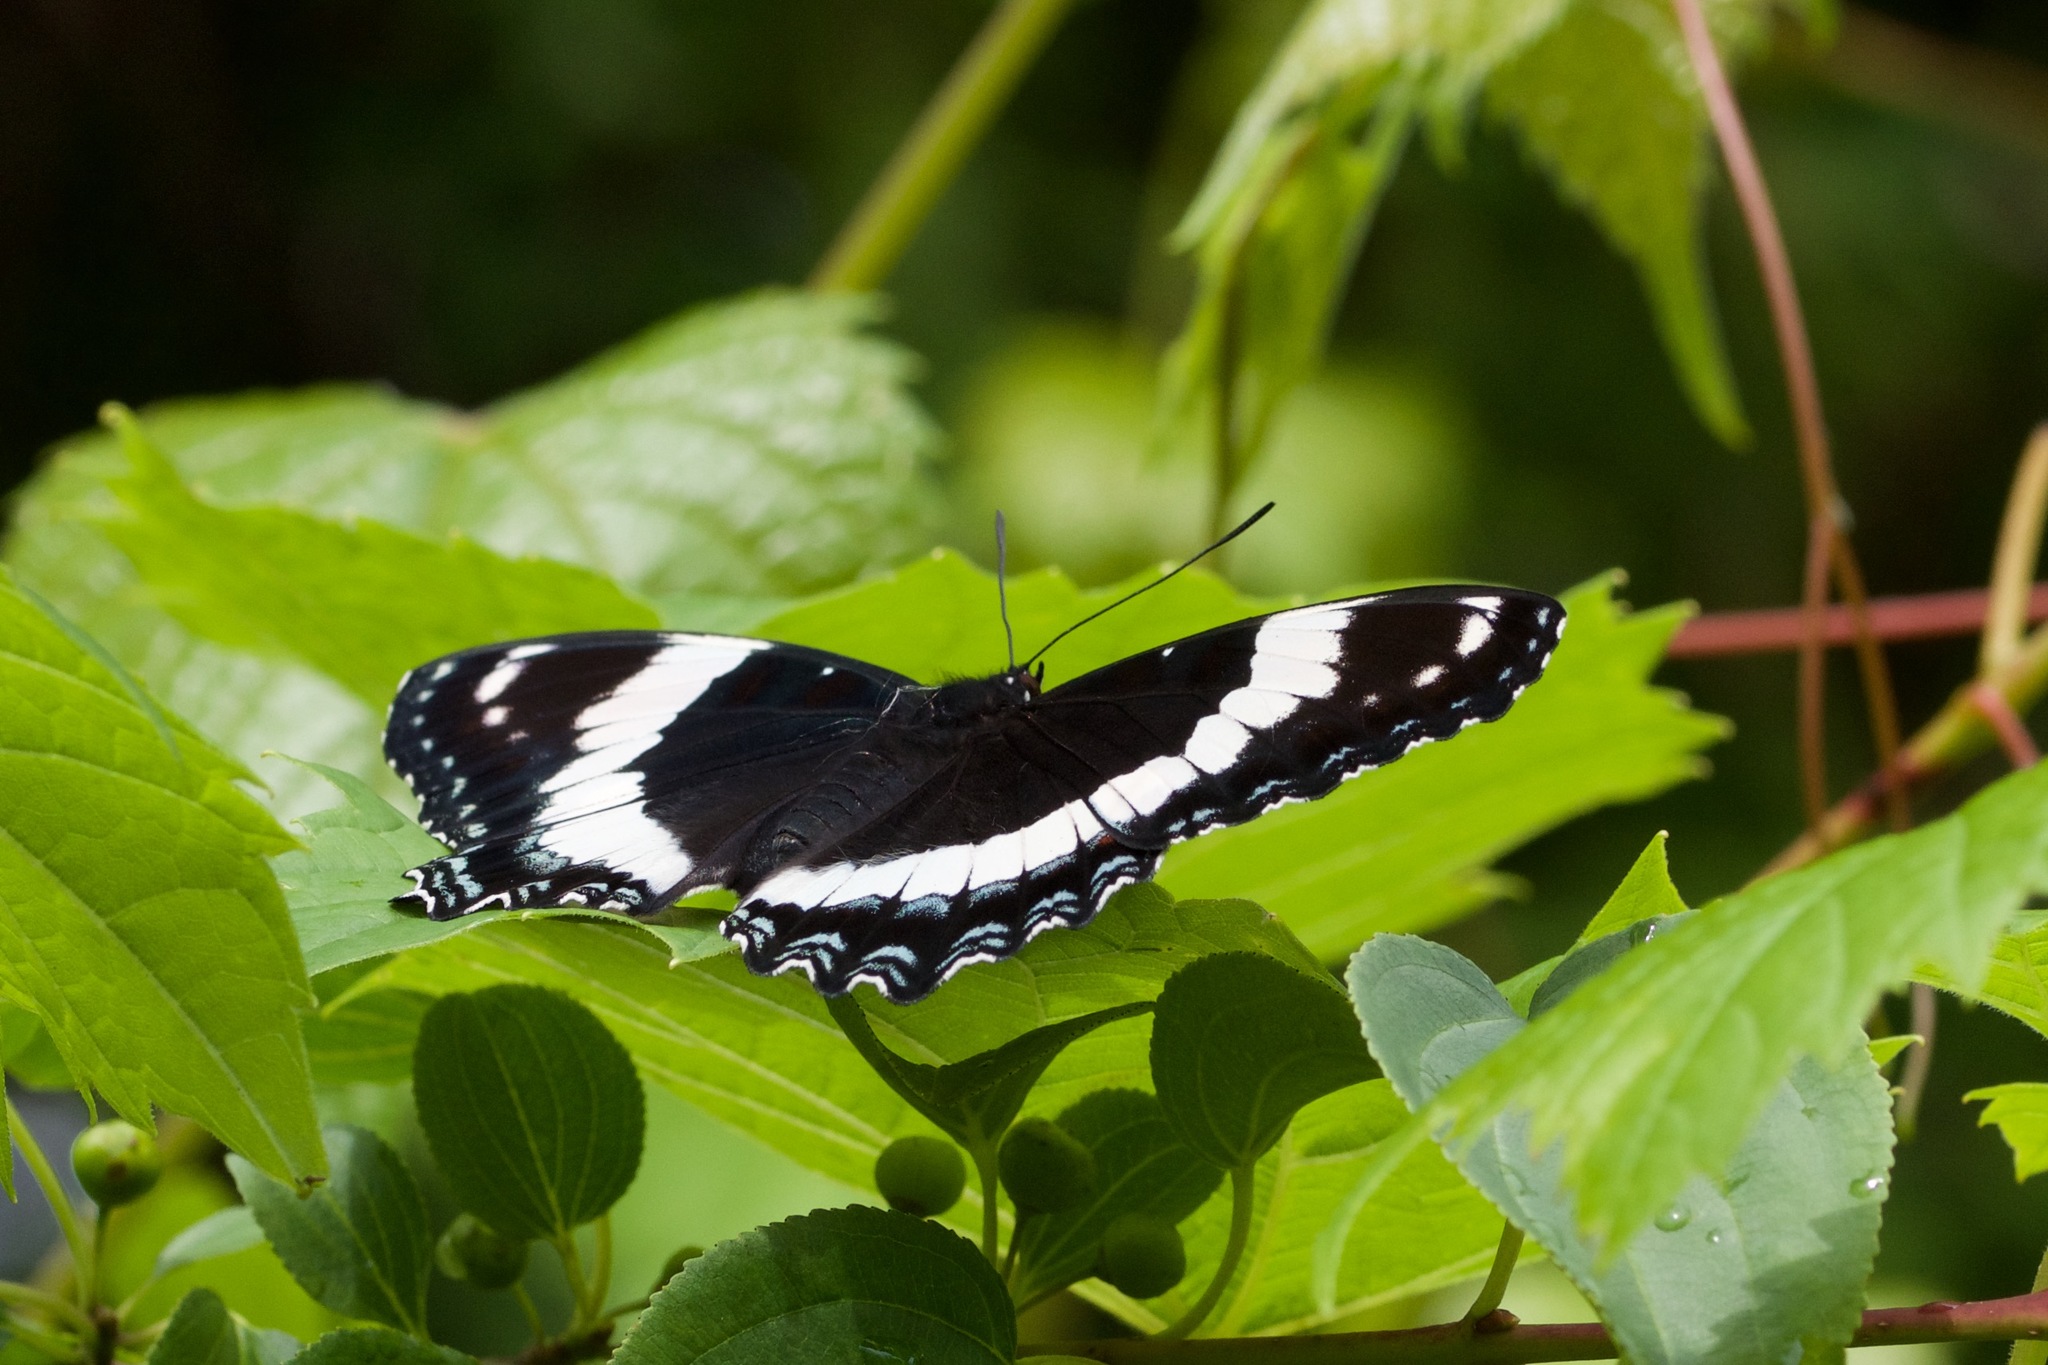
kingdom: Animalia
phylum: Arthropoda
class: Insecta
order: Lepidoptera
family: Nymphalidae
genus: Limenitis
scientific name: Limenitis arthemis
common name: Red-spotted admiral
